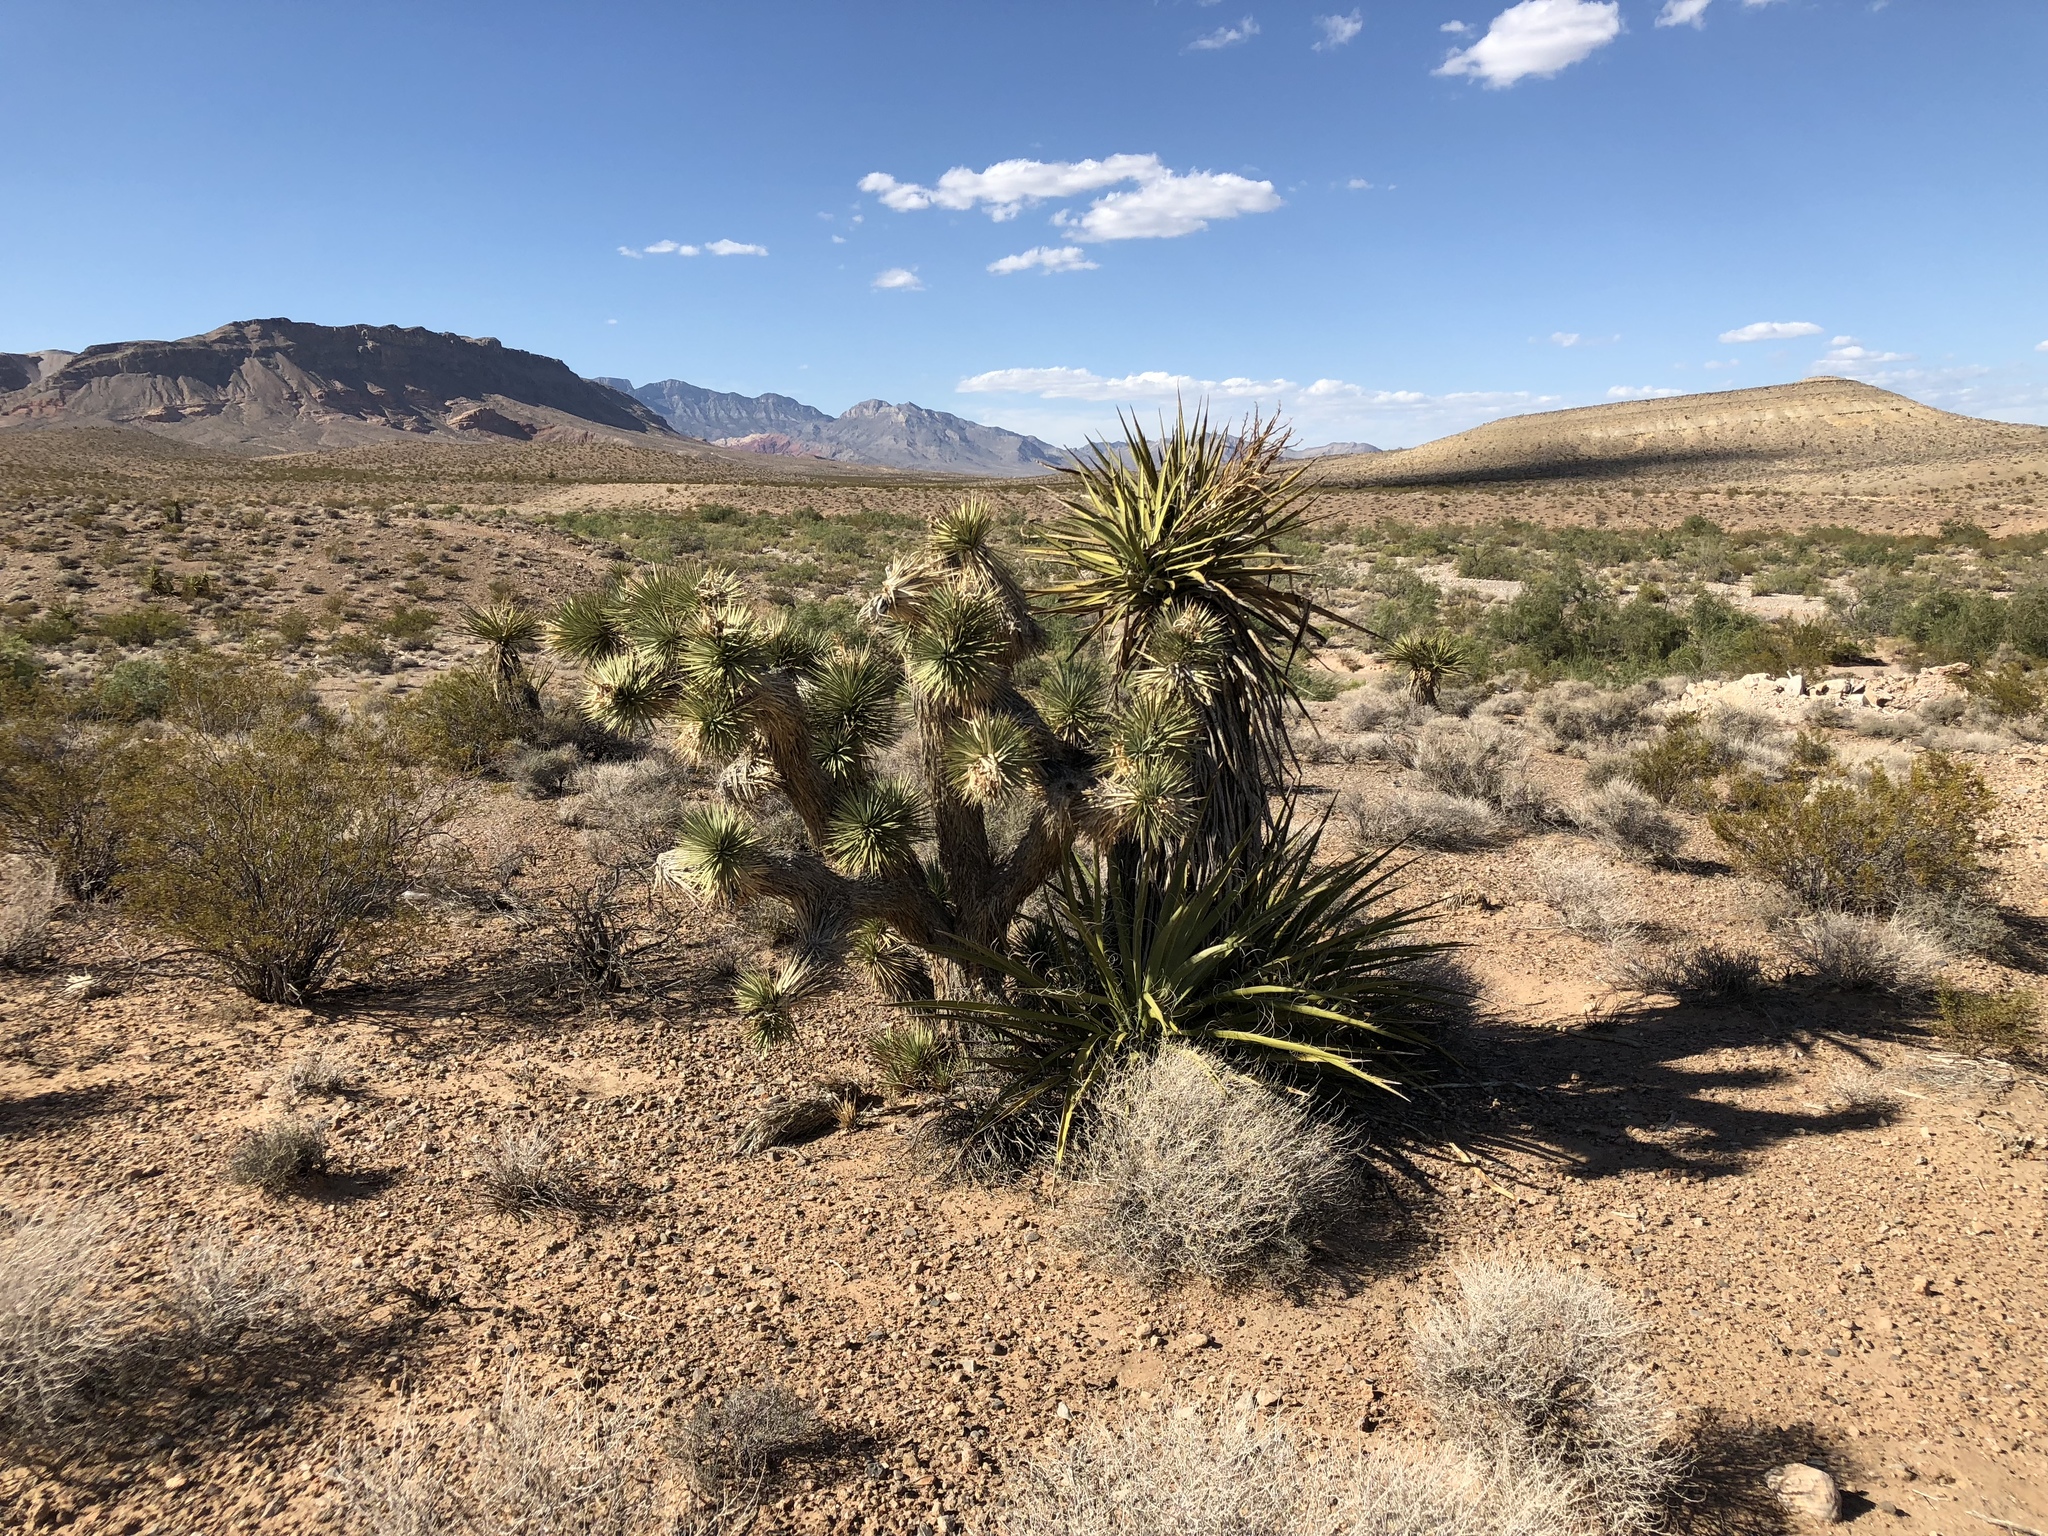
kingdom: Plantae
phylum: Tracheophyta
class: Liliopsida
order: Asparagales
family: Asparagaceae
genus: Yucca
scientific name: Yucca brevifolia
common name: Joshua tree
